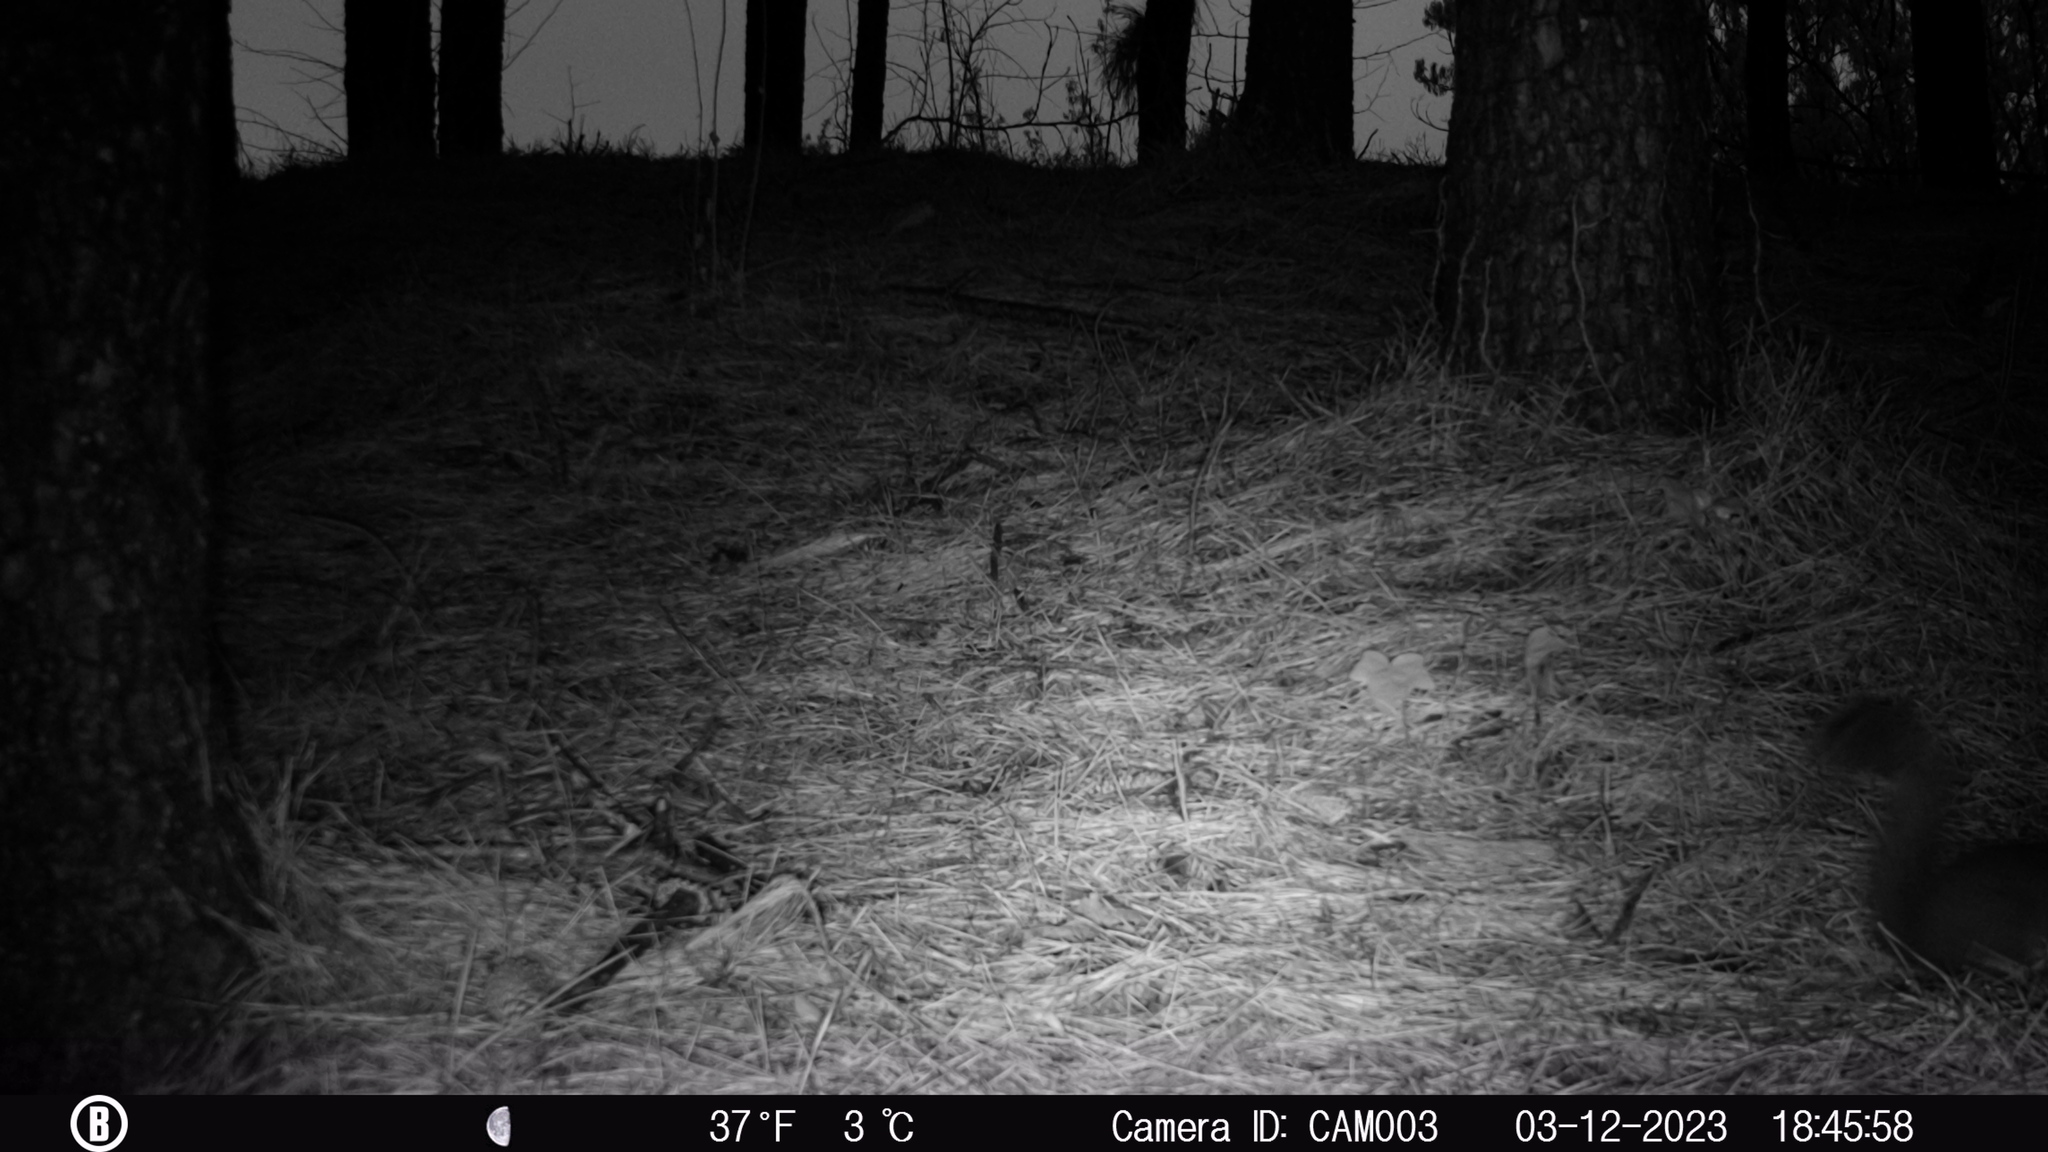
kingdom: Animalia
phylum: Chordata
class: Mammalia
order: Rodentia
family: Sciuridae
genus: Sciurus
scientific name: Sciurus carolinensis
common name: Eastern gray squirrel
